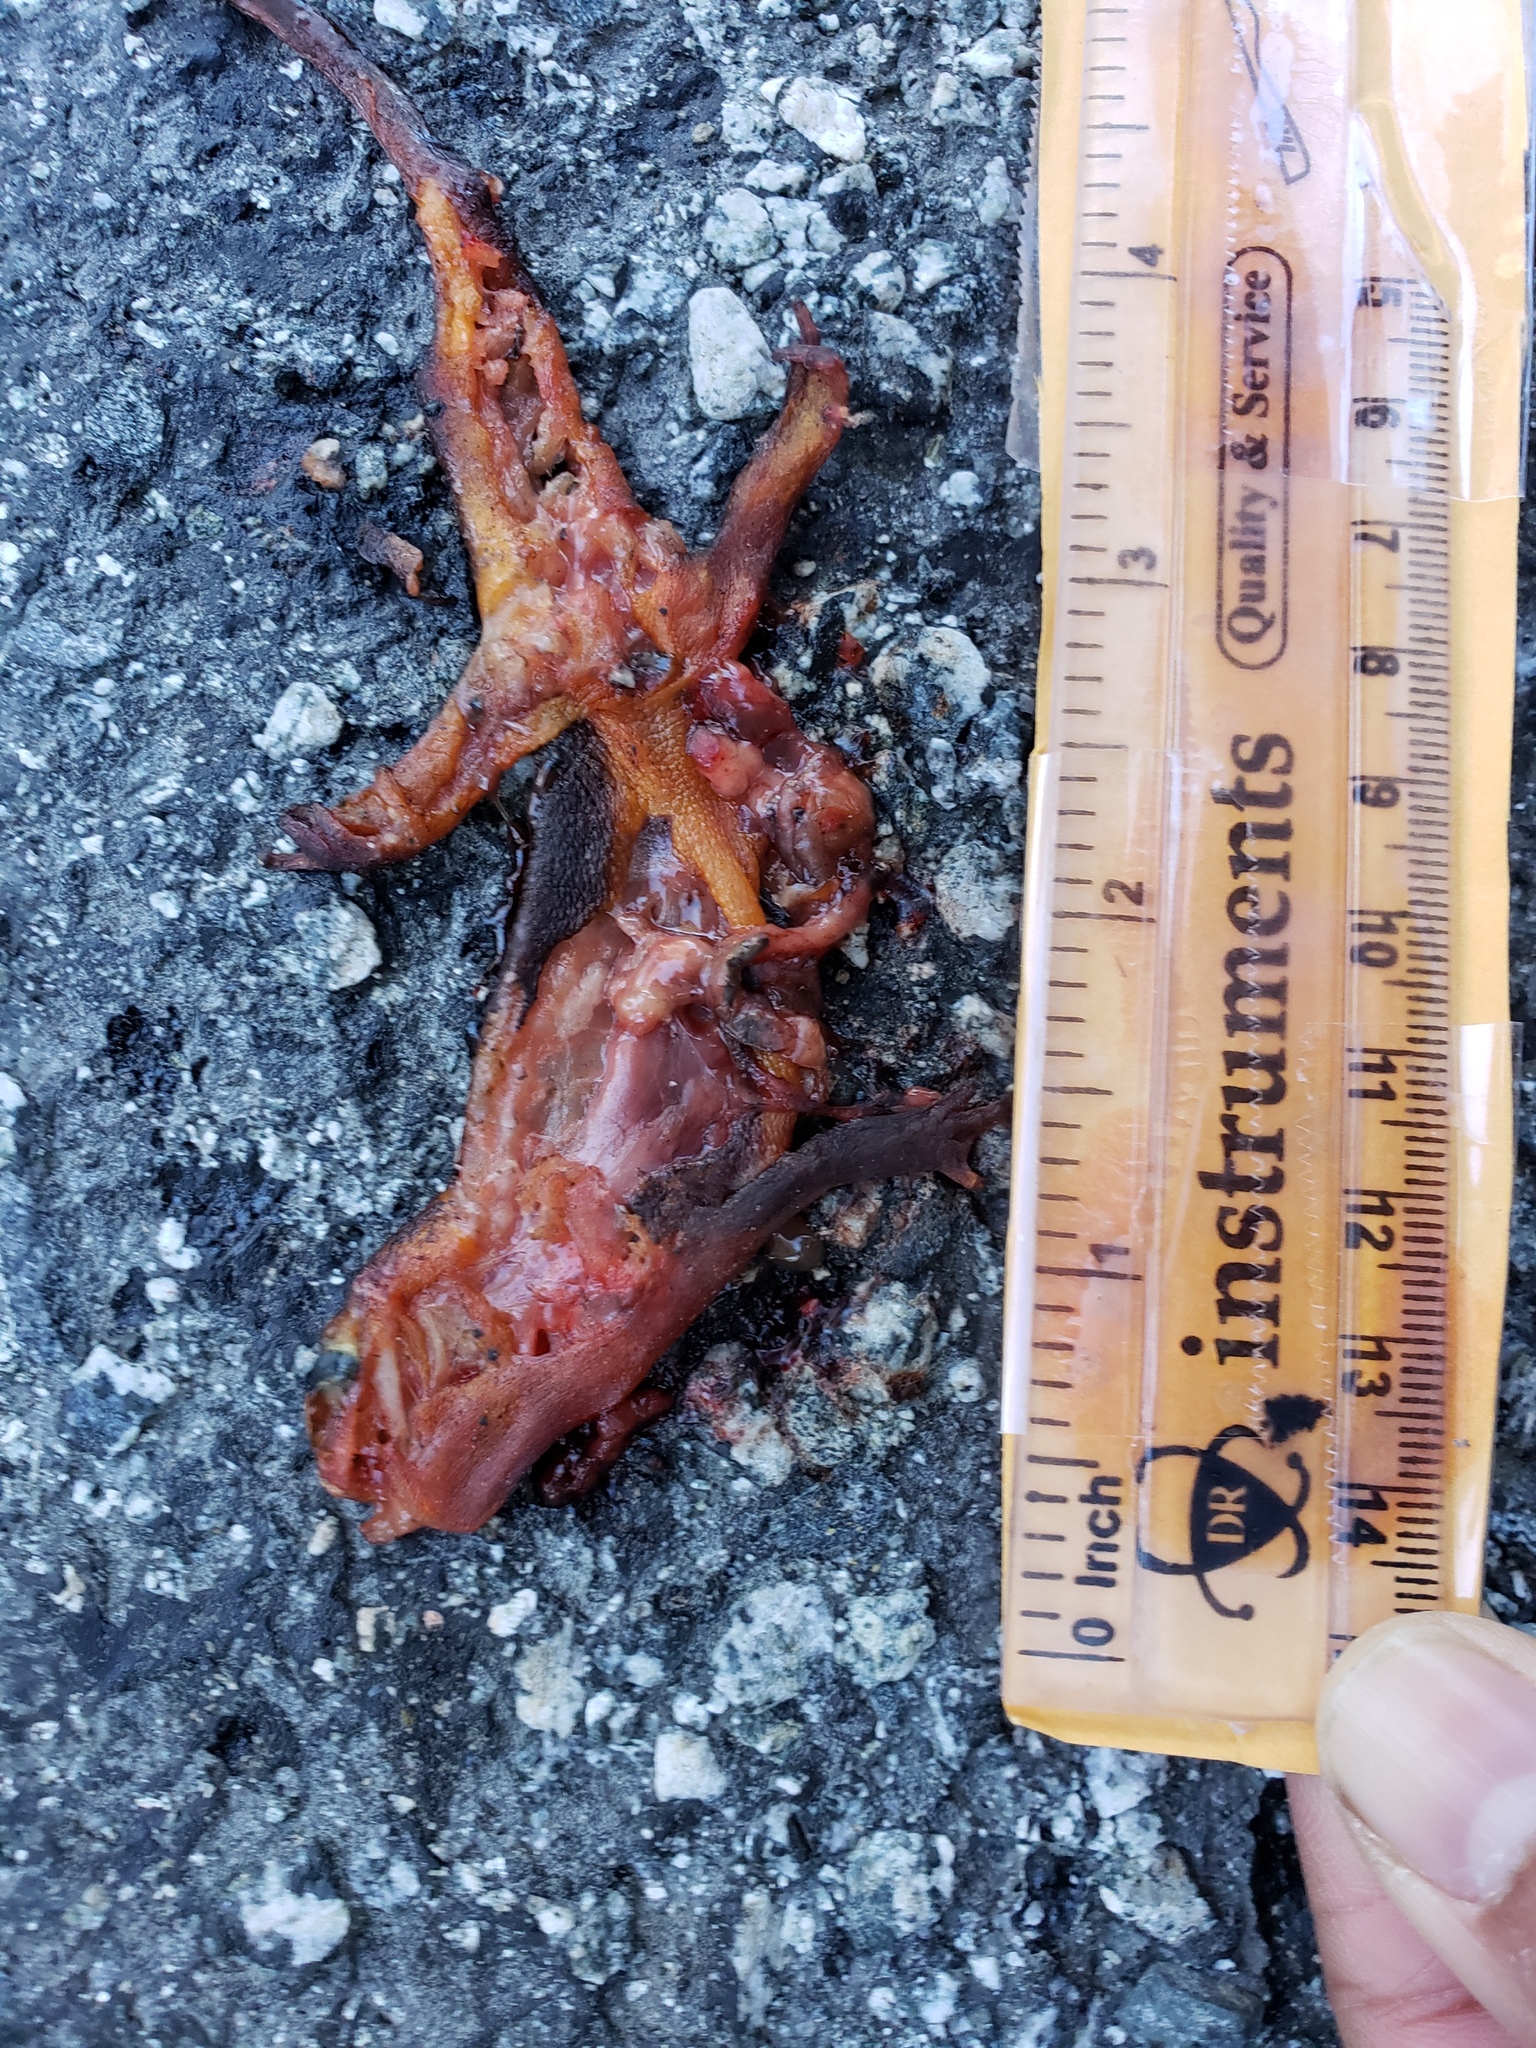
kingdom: Animalia
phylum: Chordata
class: Amphibia
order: Caudata
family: Salamandridae
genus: Taricha
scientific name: Taricha
